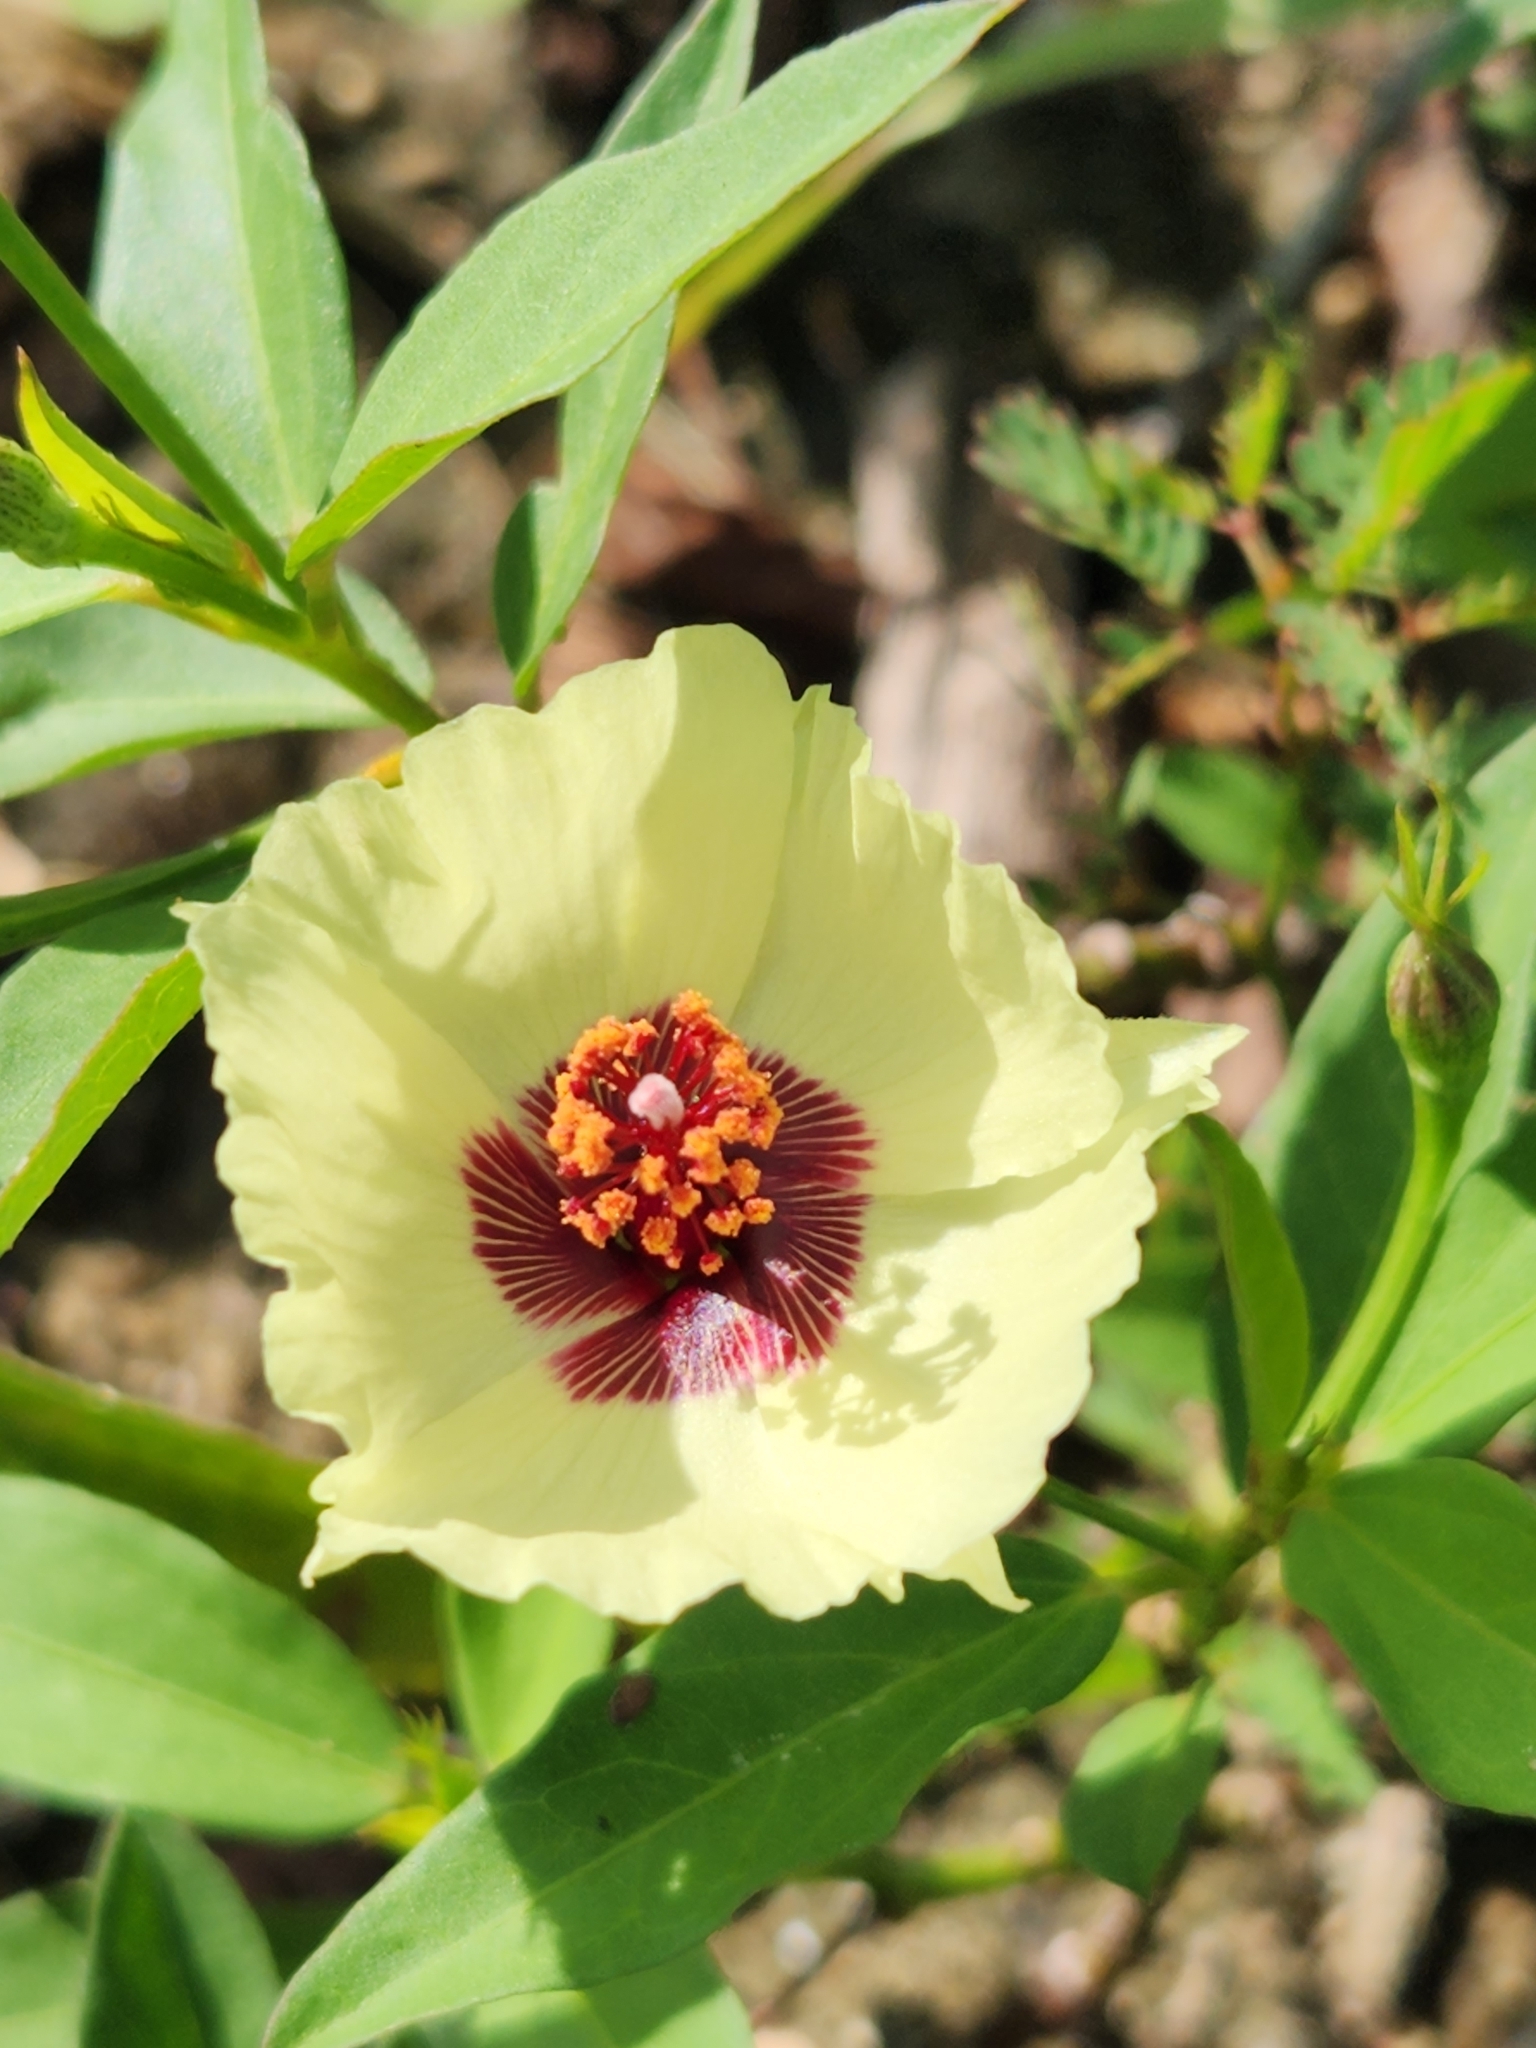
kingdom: Plantae
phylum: Tracheophyta
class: Magnoliopsida
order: Malvales
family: Malvaceae
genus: Cienfuegosia
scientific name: Cienfuegosia affinis
